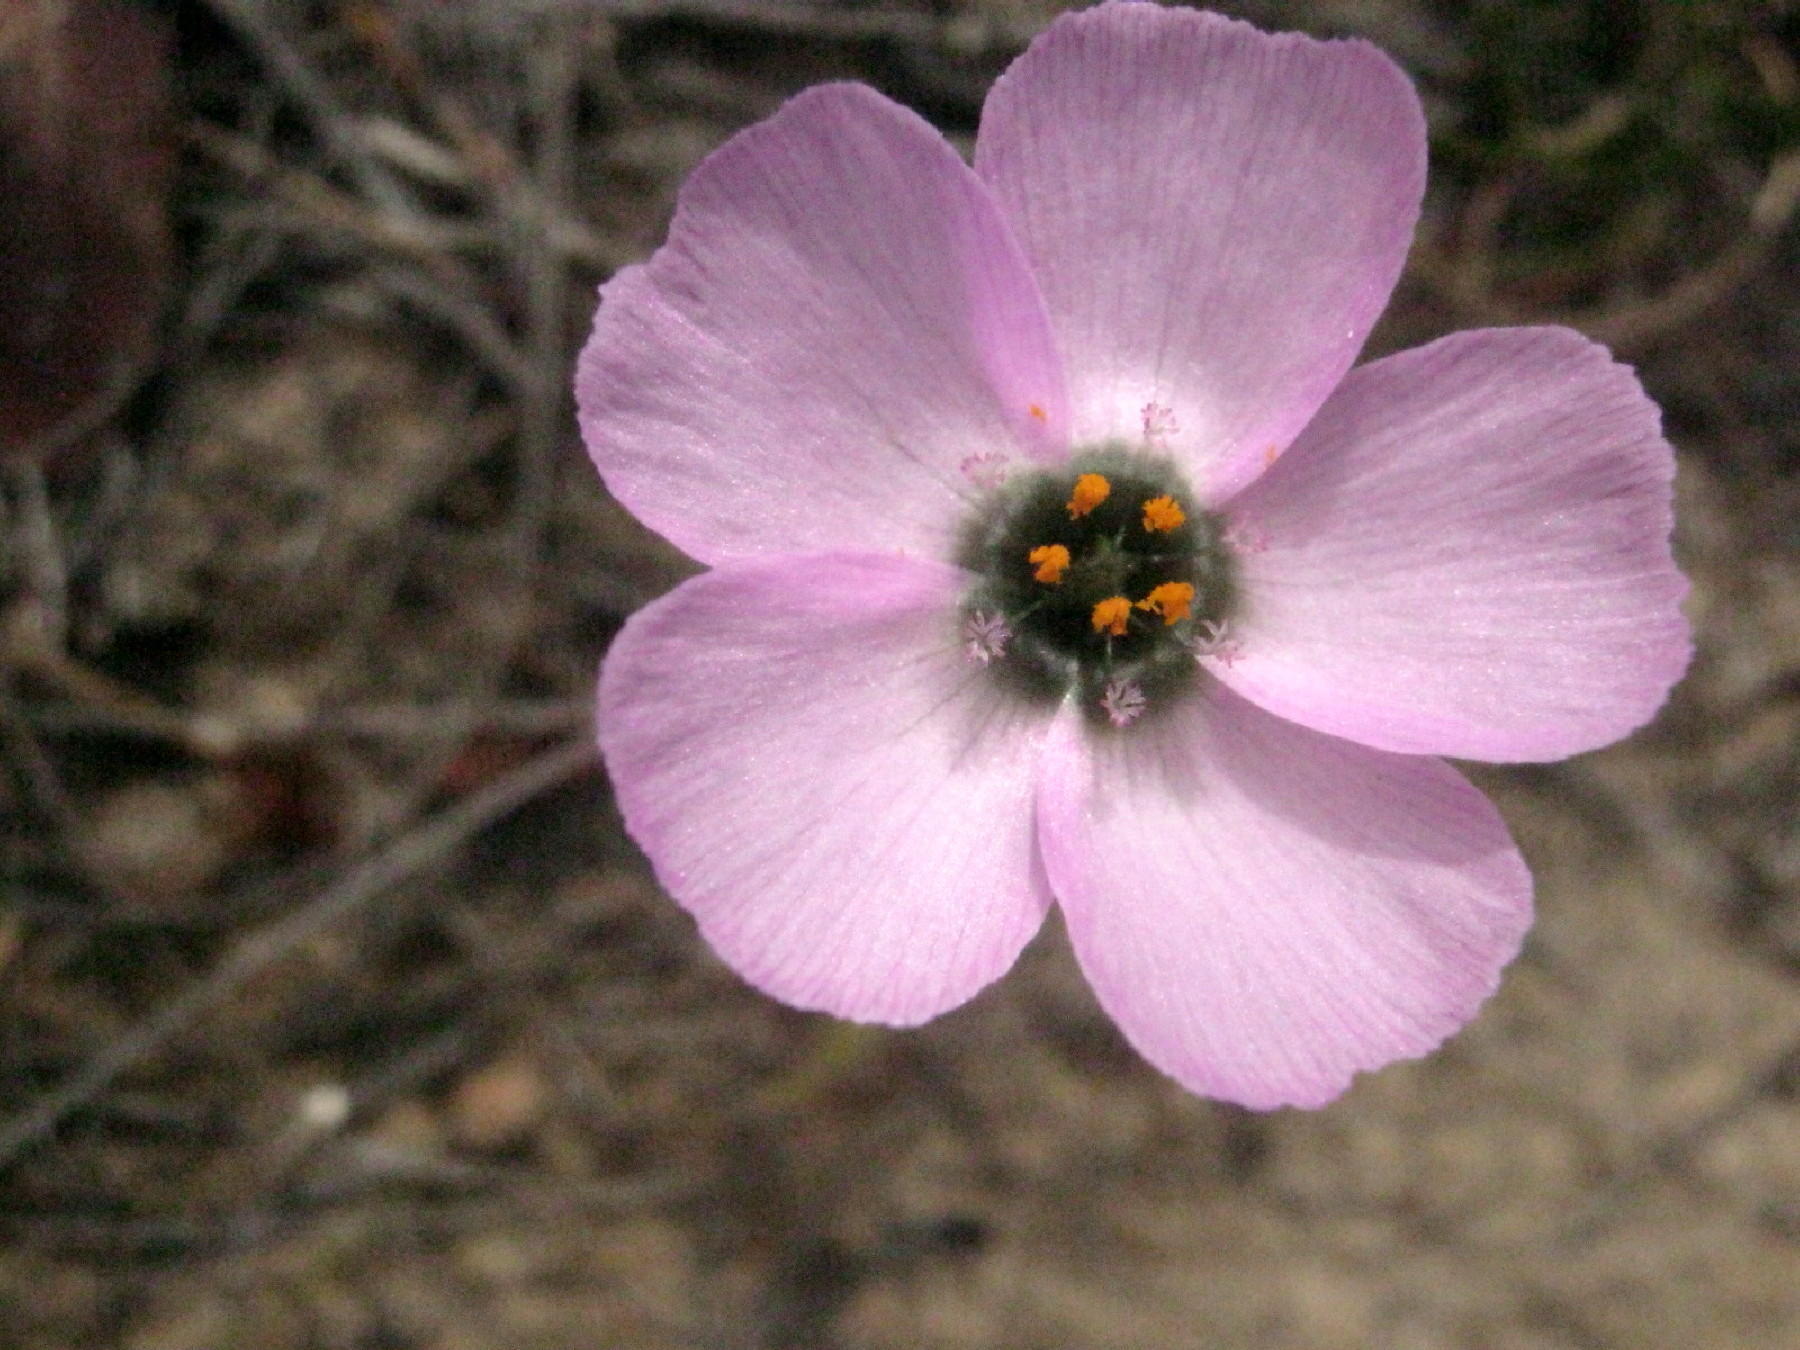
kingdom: Plantae
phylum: Tracheophyta
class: Magnoliopsida
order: Caryophyllales
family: Droseraceae
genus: Drosera
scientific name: Drosera cistiflora
